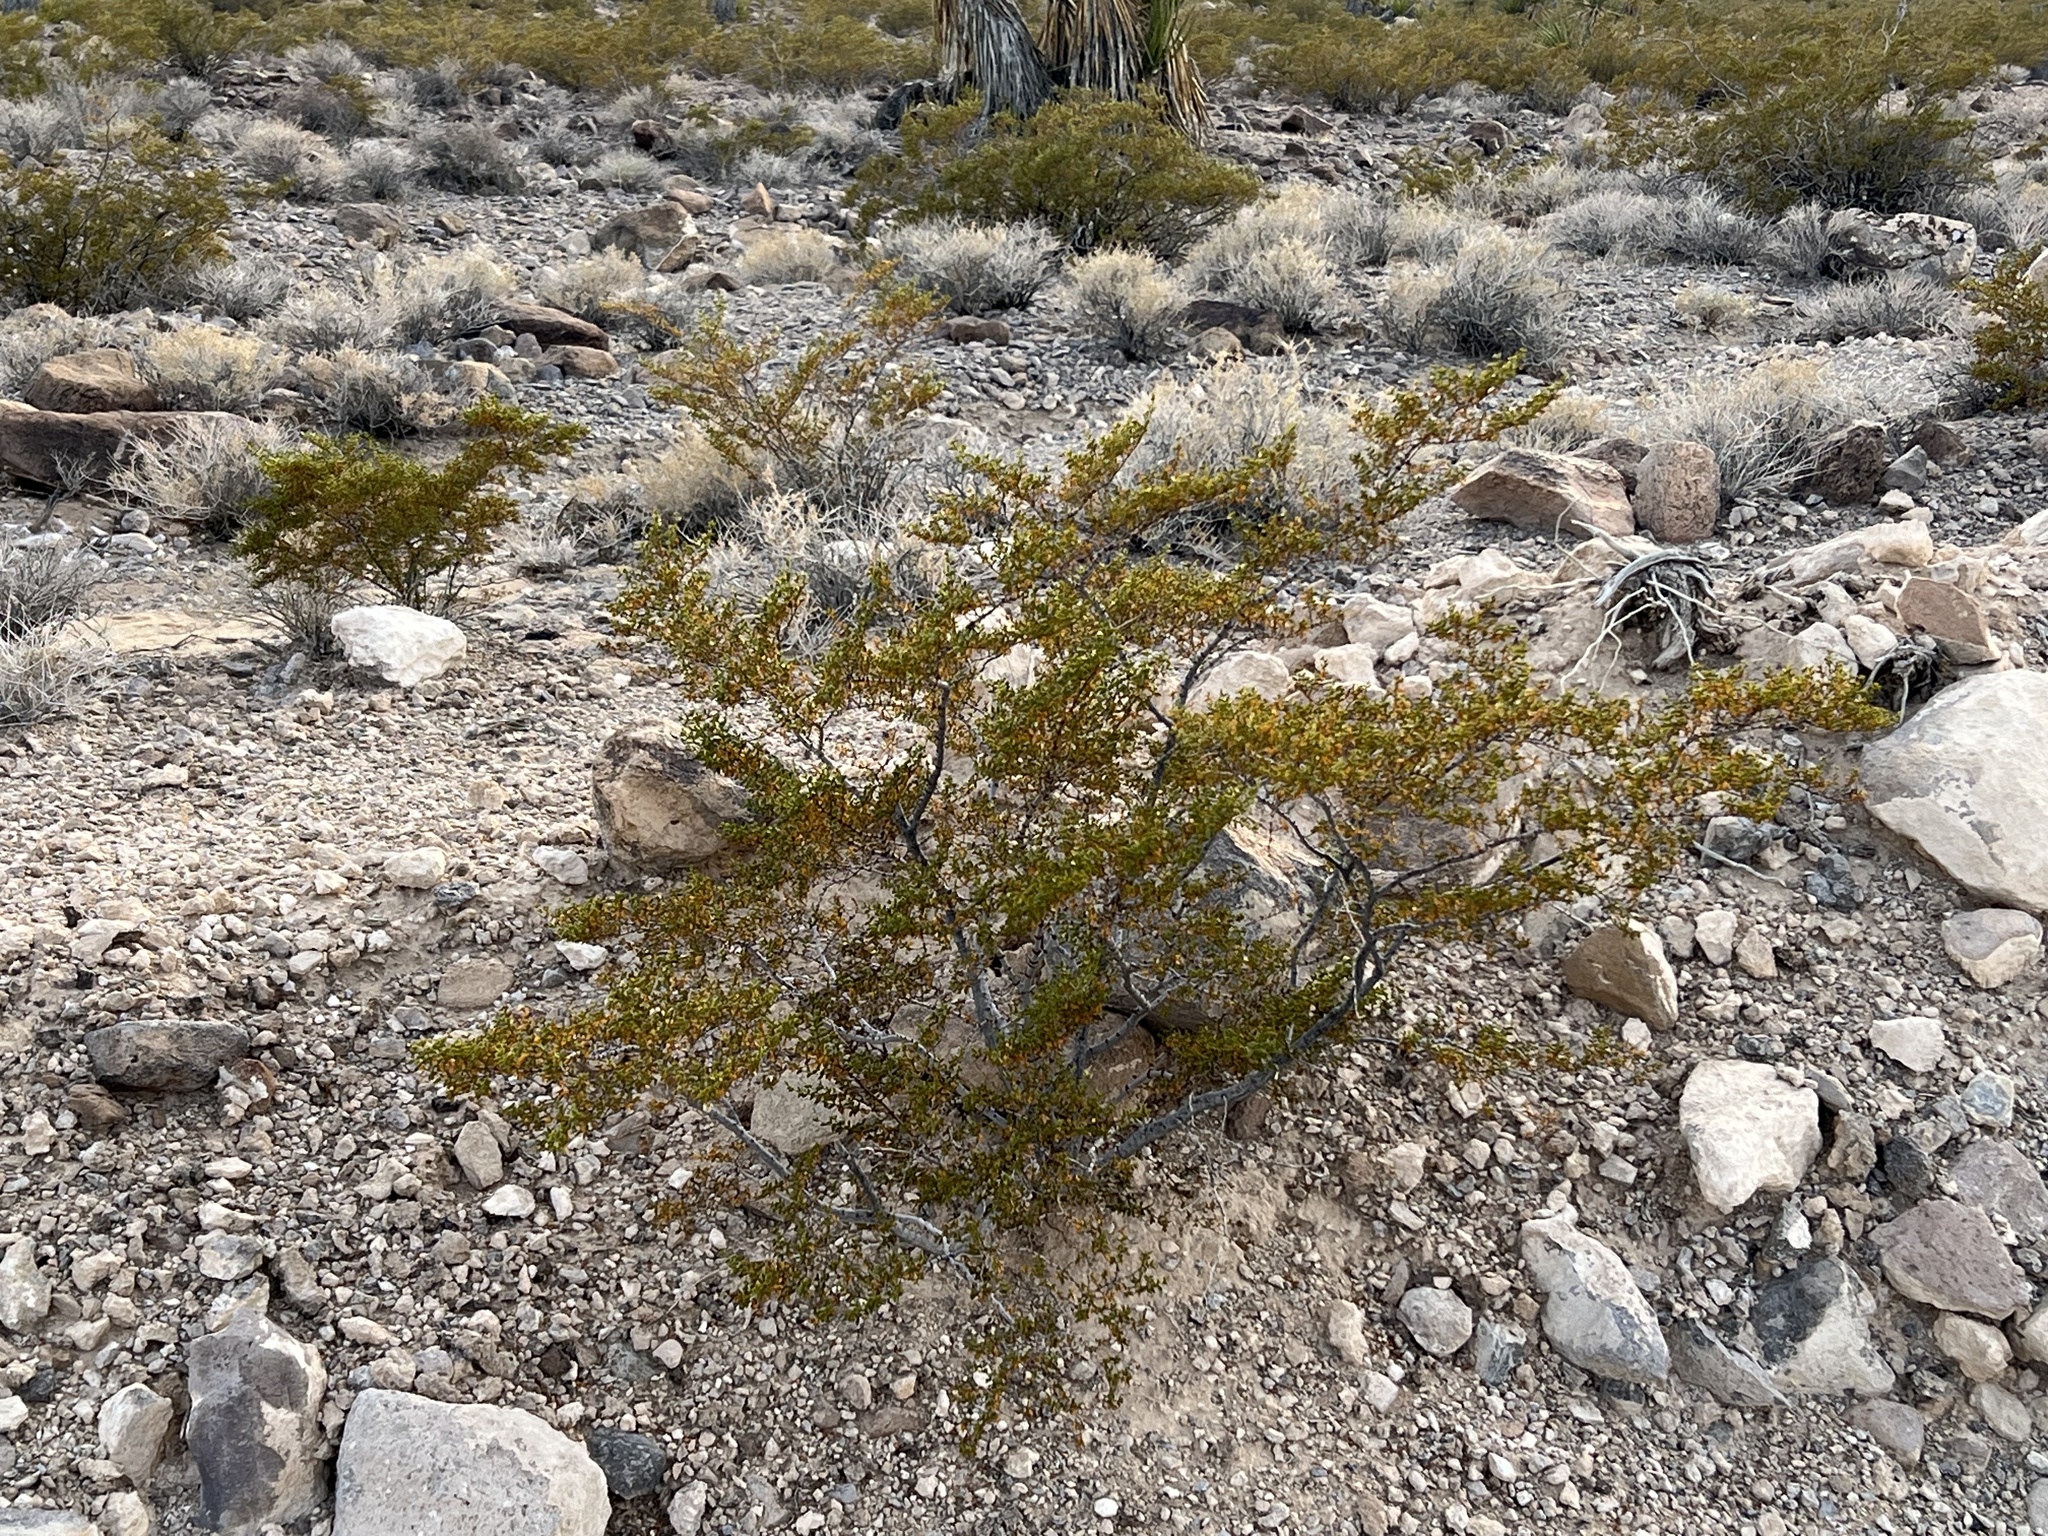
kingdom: Plantae
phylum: Tracheophyta
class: Magnoliopsida
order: Zygophyllales
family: Zygophyllaceae
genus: Larrea
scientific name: Larrea tridentata
